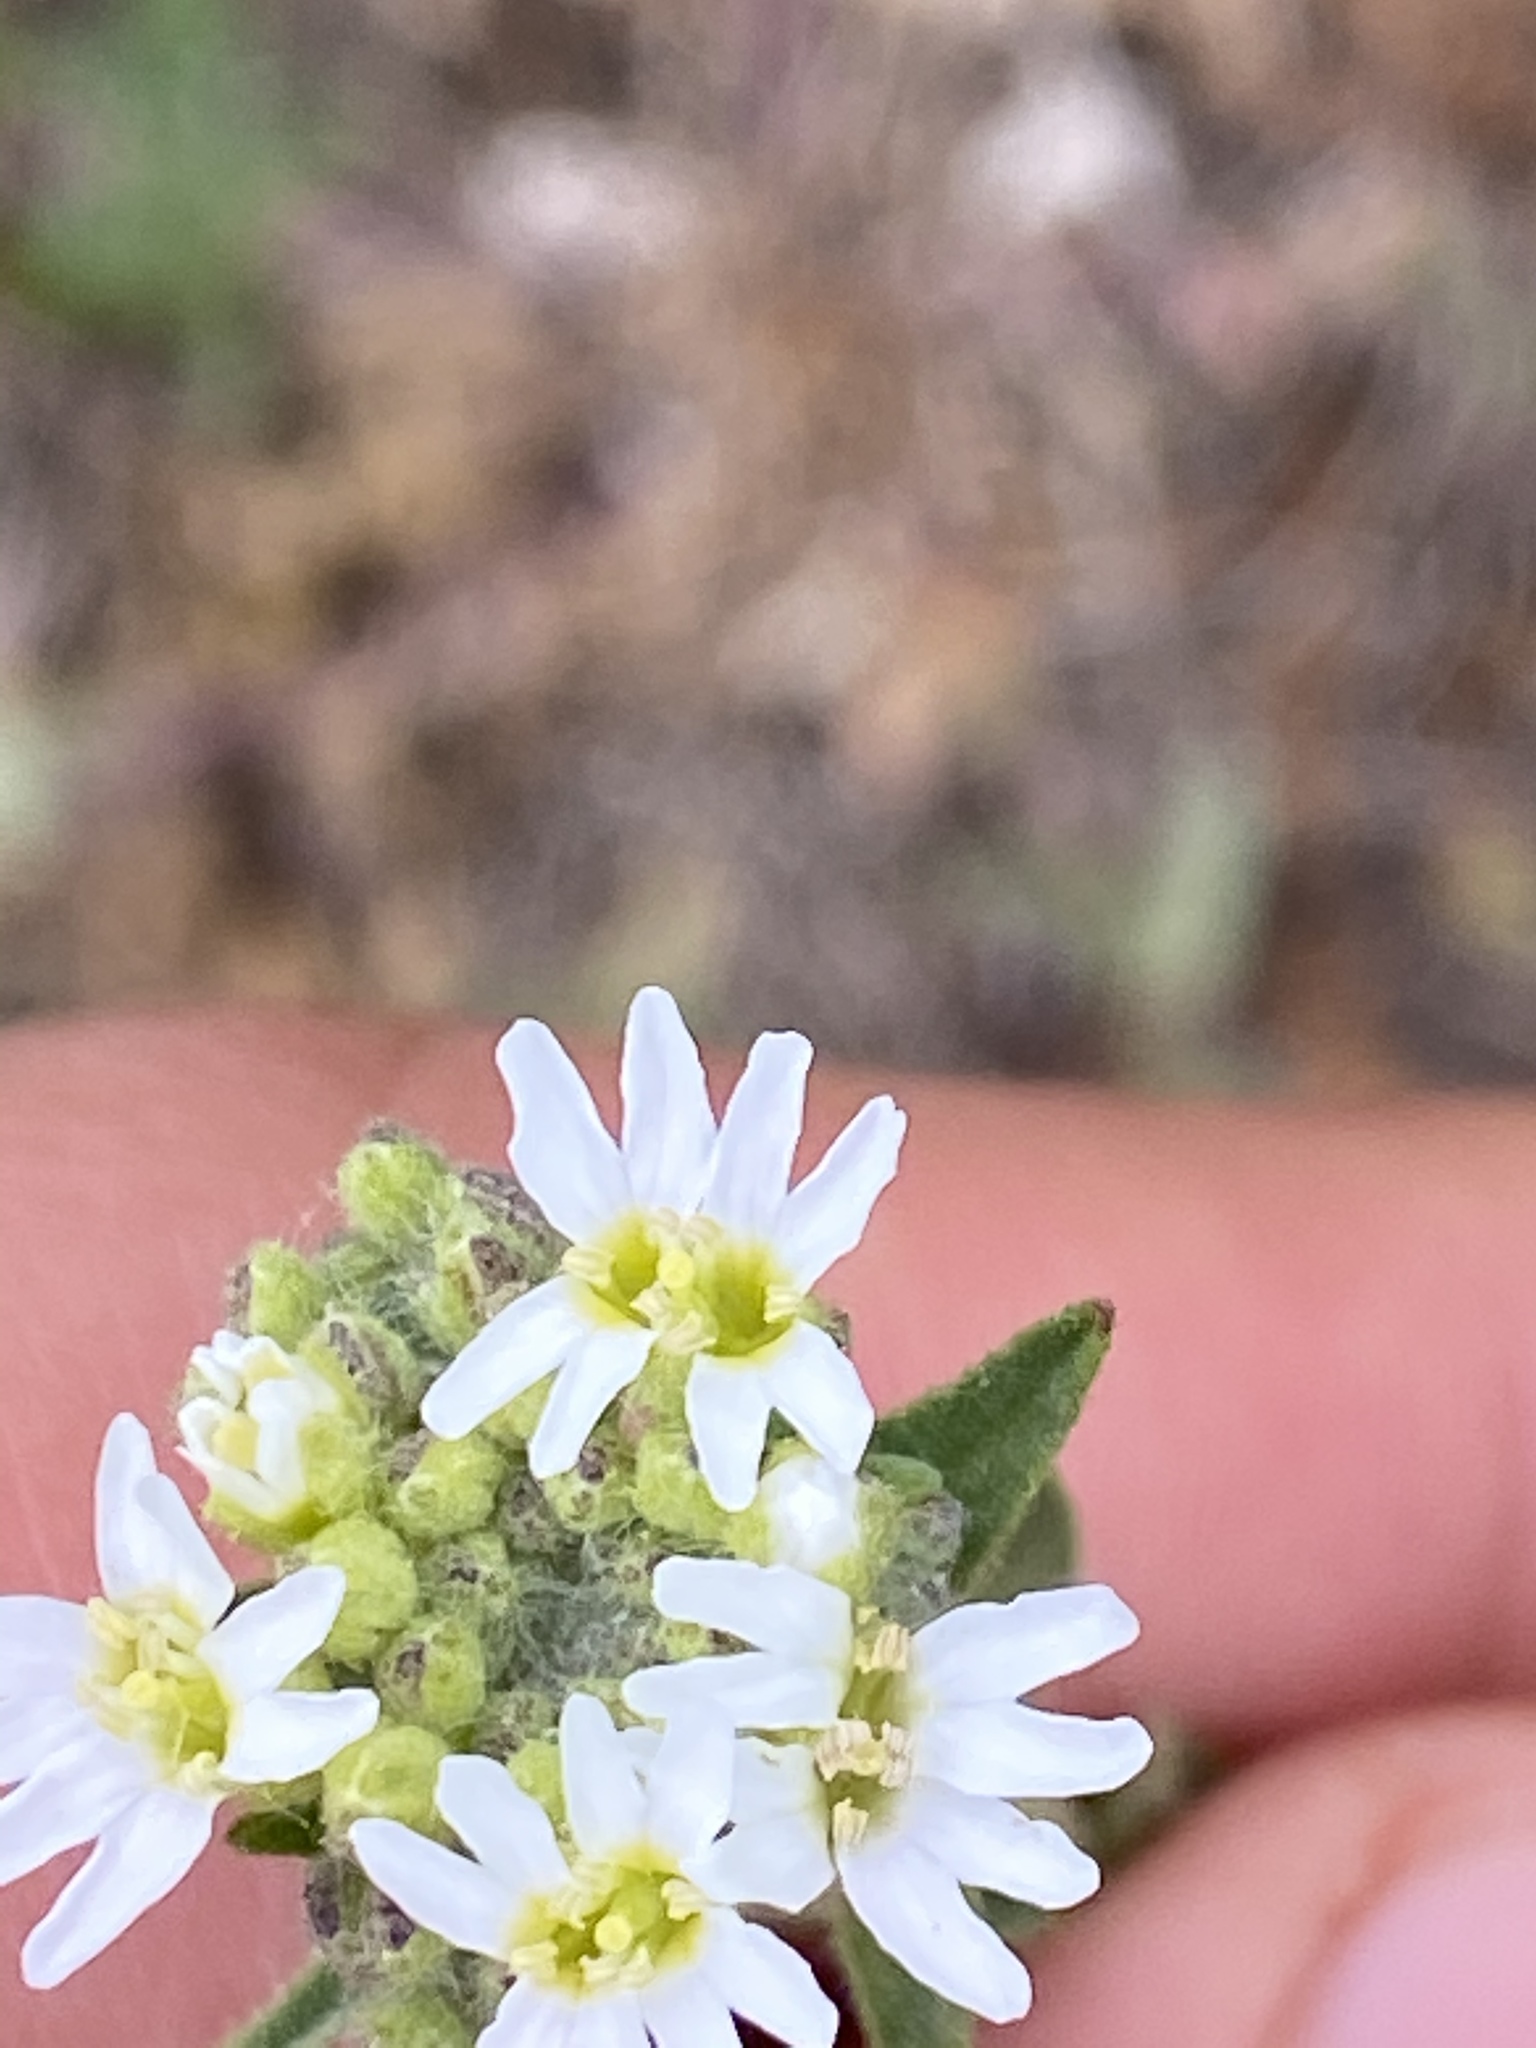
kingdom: Plantae
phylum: Tracheophyta
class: Magnoliopsida
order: Brassicales
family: Brassicaceae
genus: Berteroa
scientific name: Berteroa incana
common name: Hoary alison
